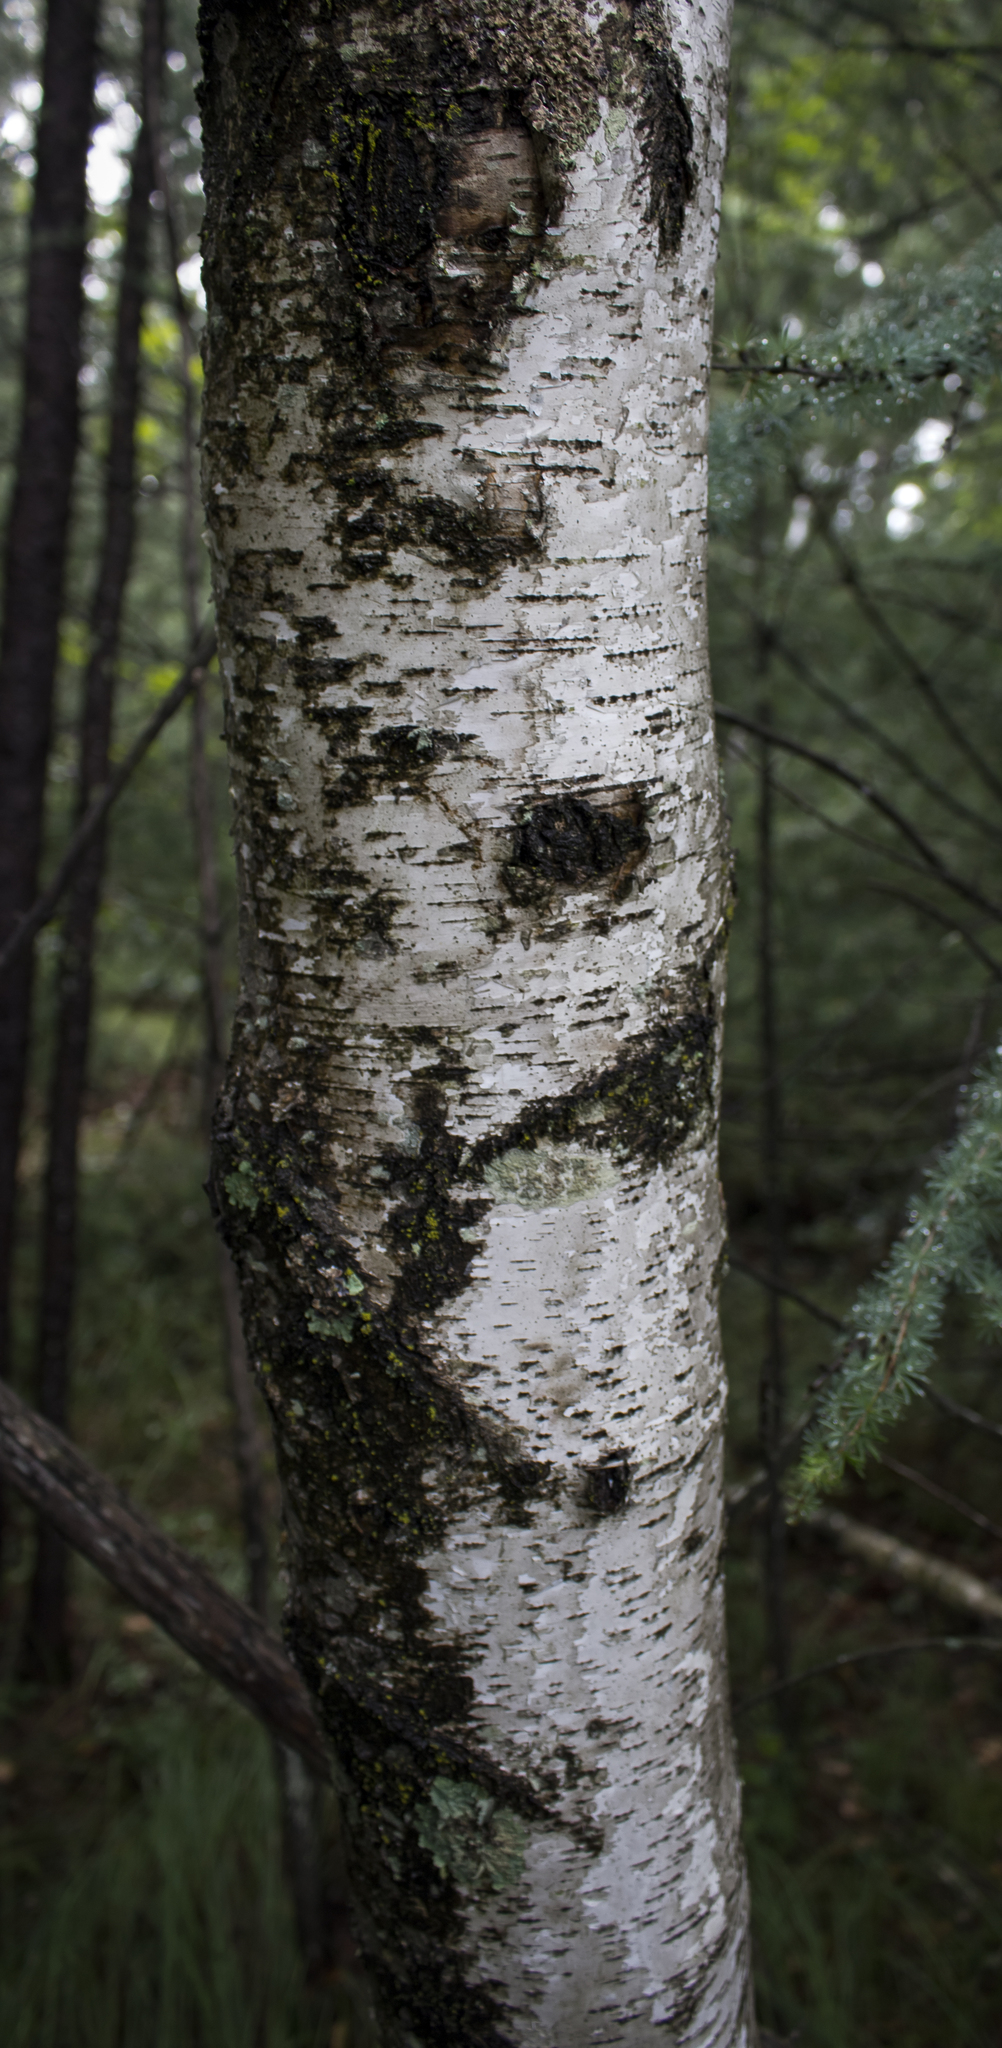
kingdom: Plantae
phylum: Tracheophyta
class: Magnoliopsida
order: Fagales
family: Betulaceae
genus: Betula
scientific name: Betula papyrifera
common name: Paper birch
